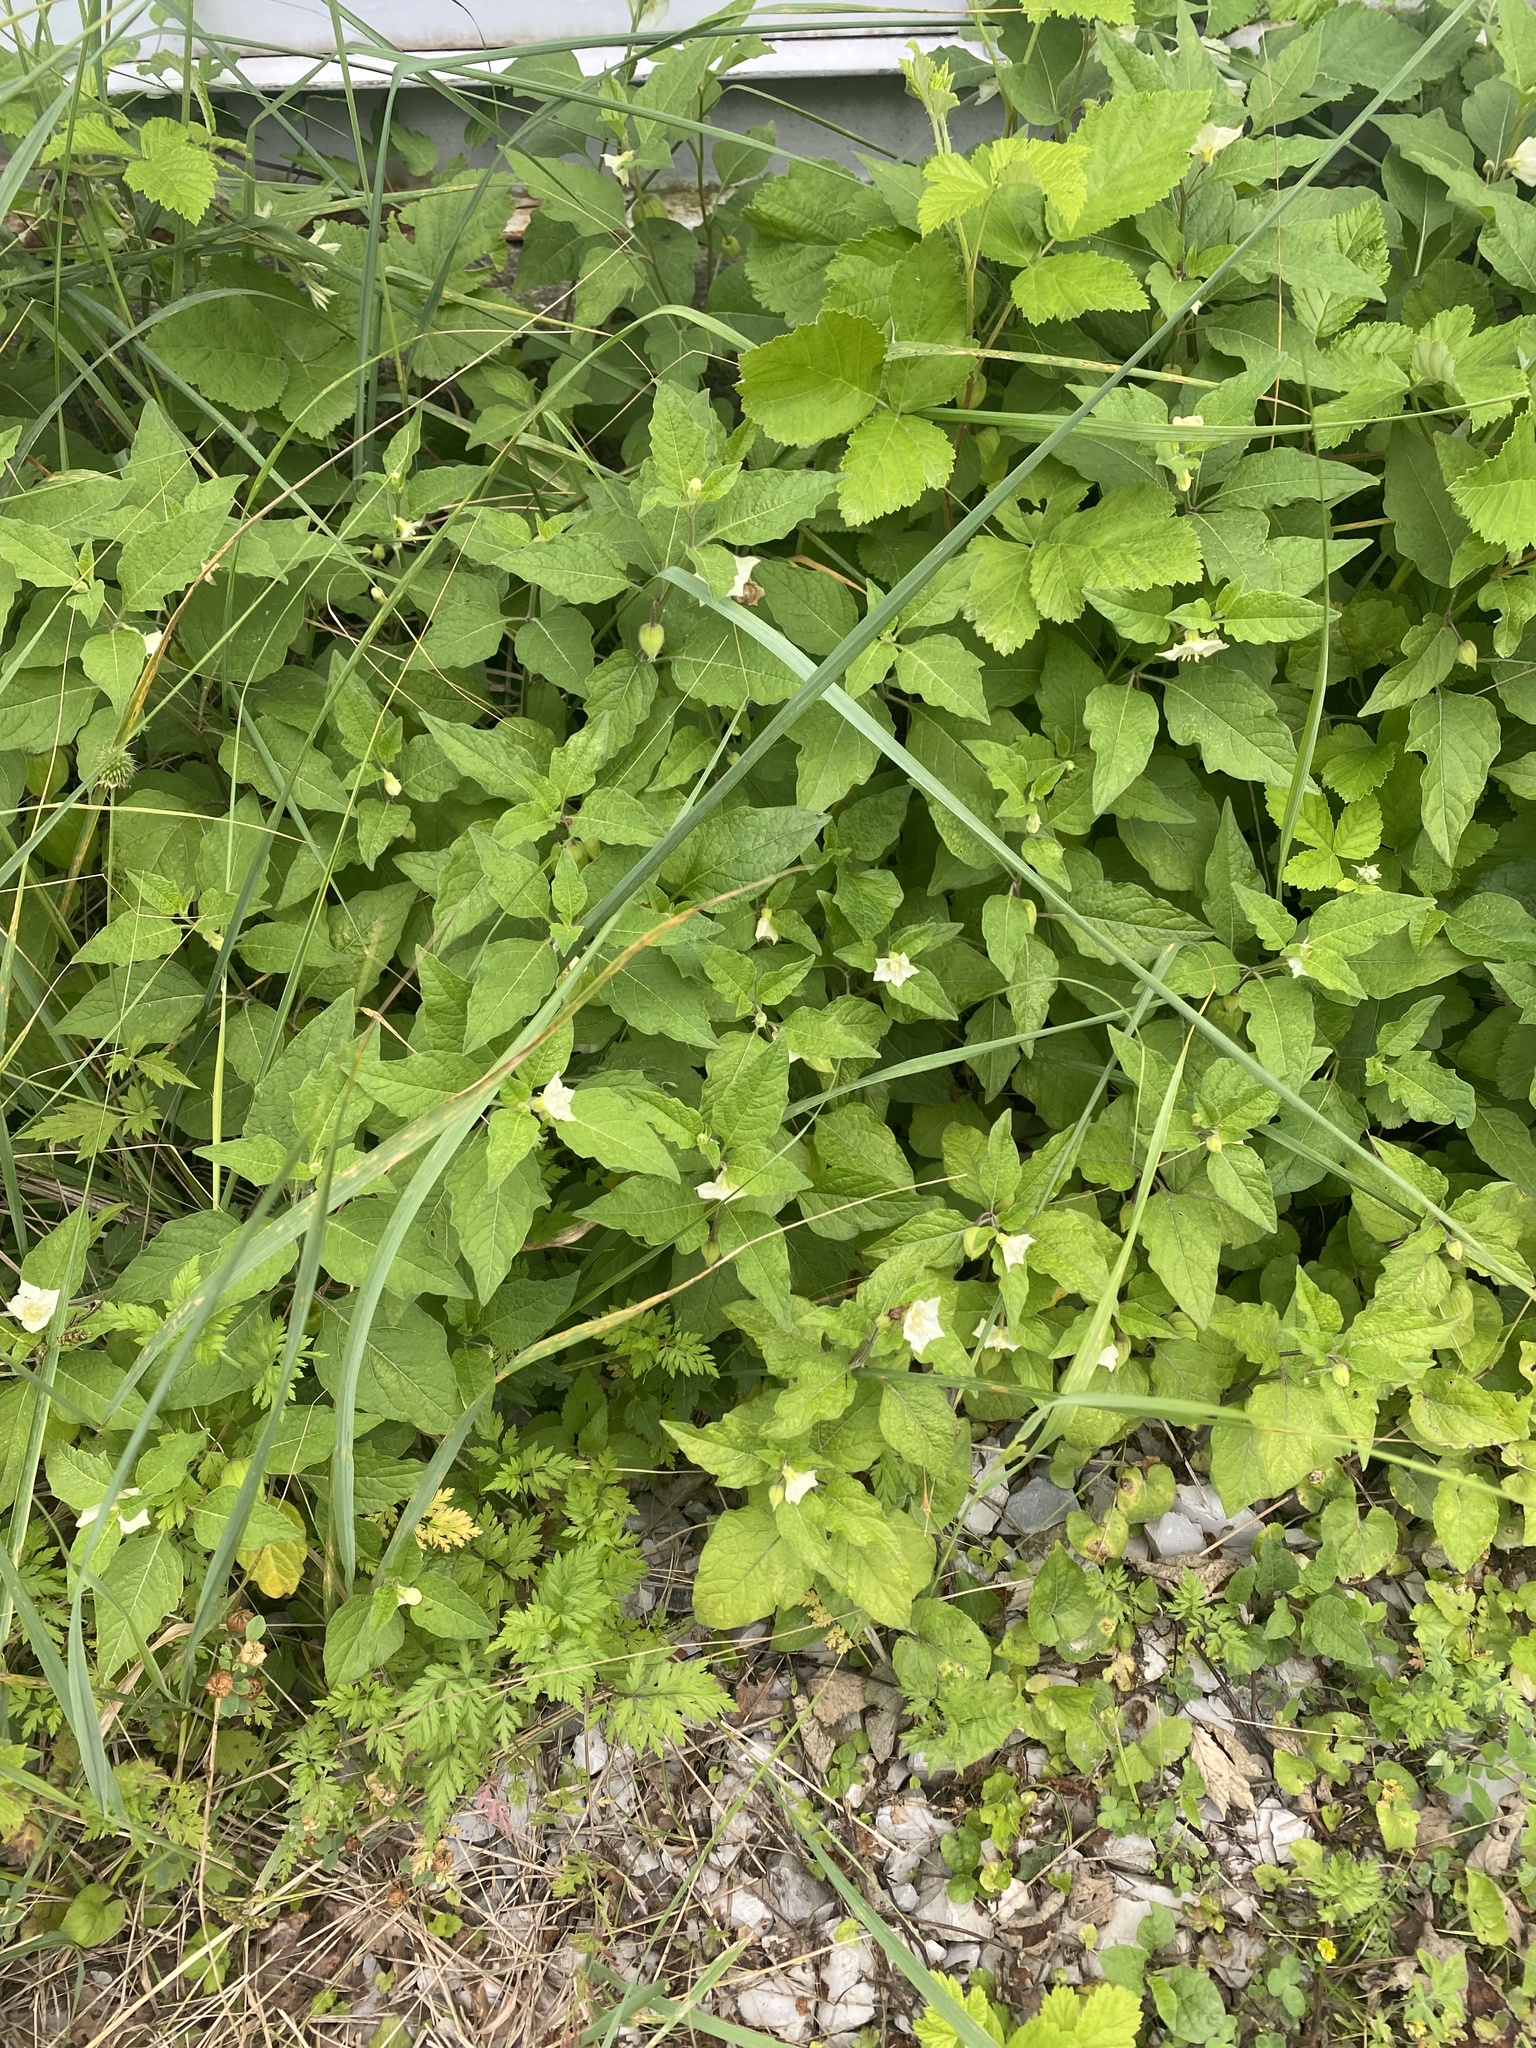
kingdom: Plantae
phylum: Tracheophyta
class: Magnoliopsida
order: Solanales
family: Solanaceae
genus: Alkekengi
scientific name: Alkekengi officinarum
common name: Japanese-lantern
